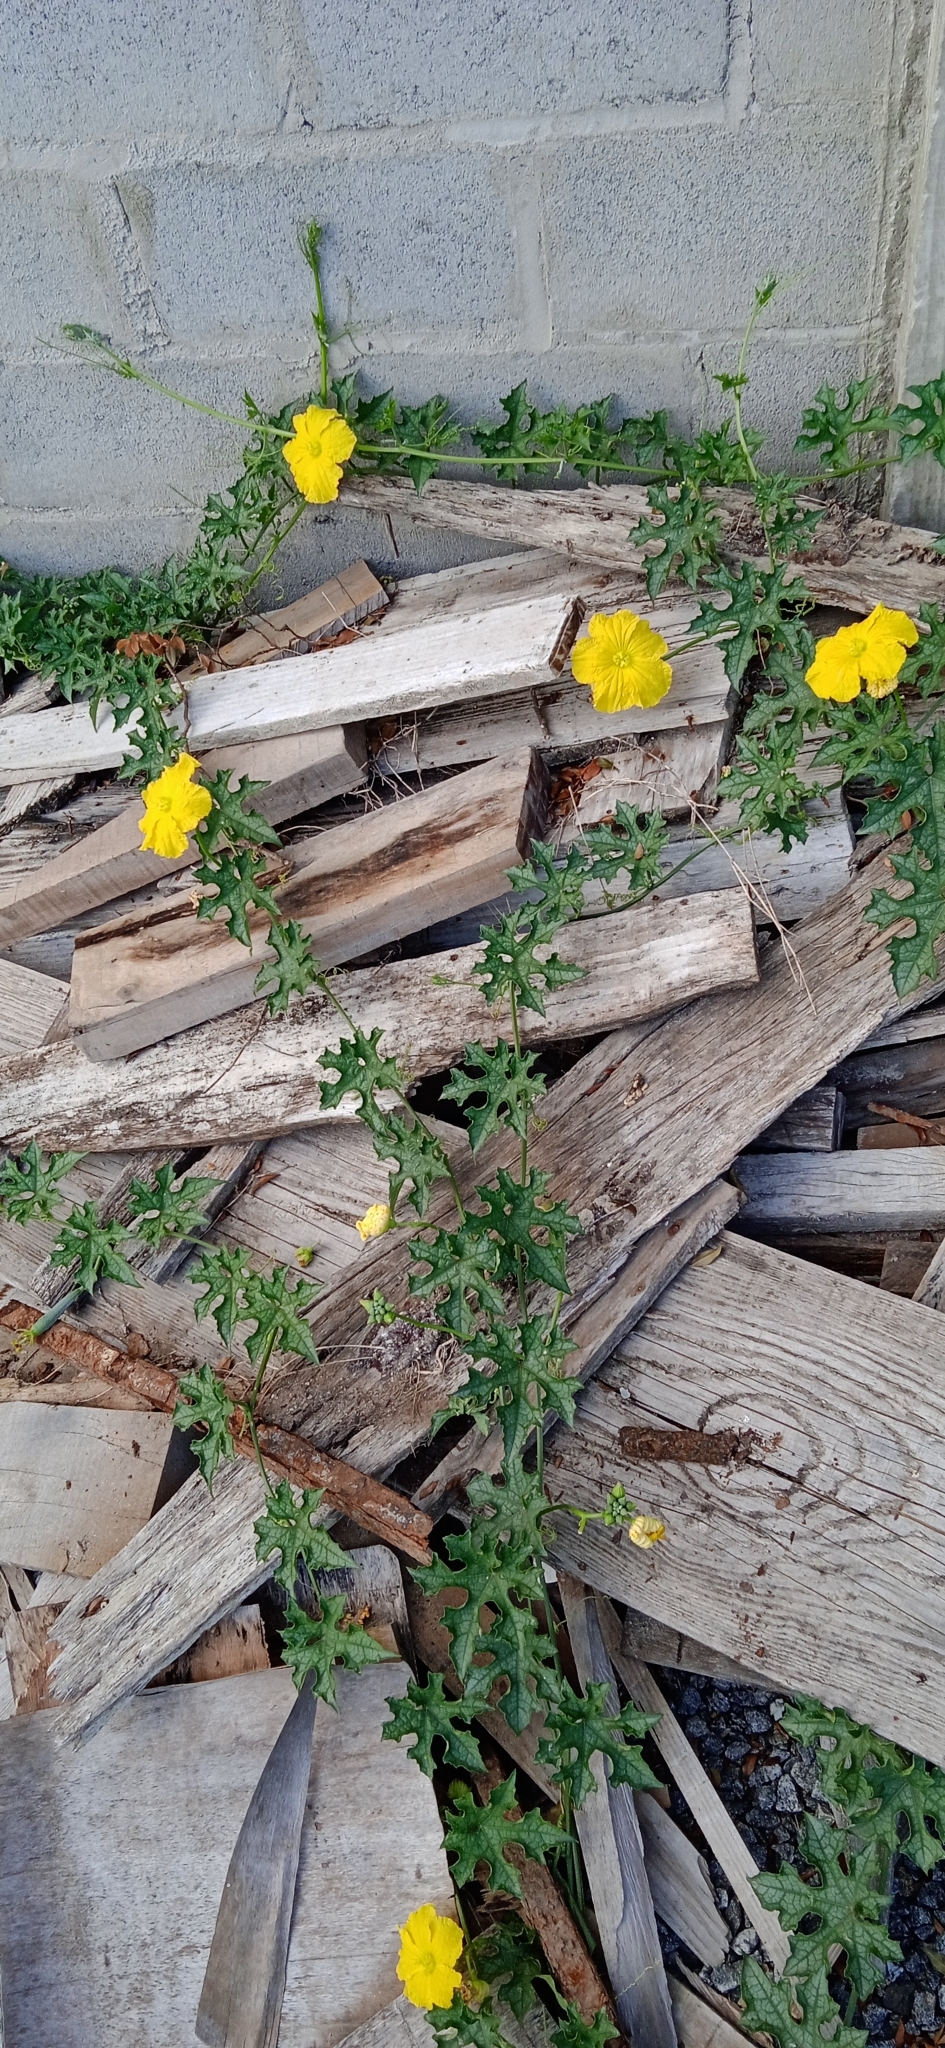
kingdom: Plantae
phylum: Tracheophyta
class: Magnoliopsida
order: Cucurbitales
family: Cucurbitaceae
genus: Luffa
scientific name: Luffa aegyptiaca
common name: Sponge gourd
